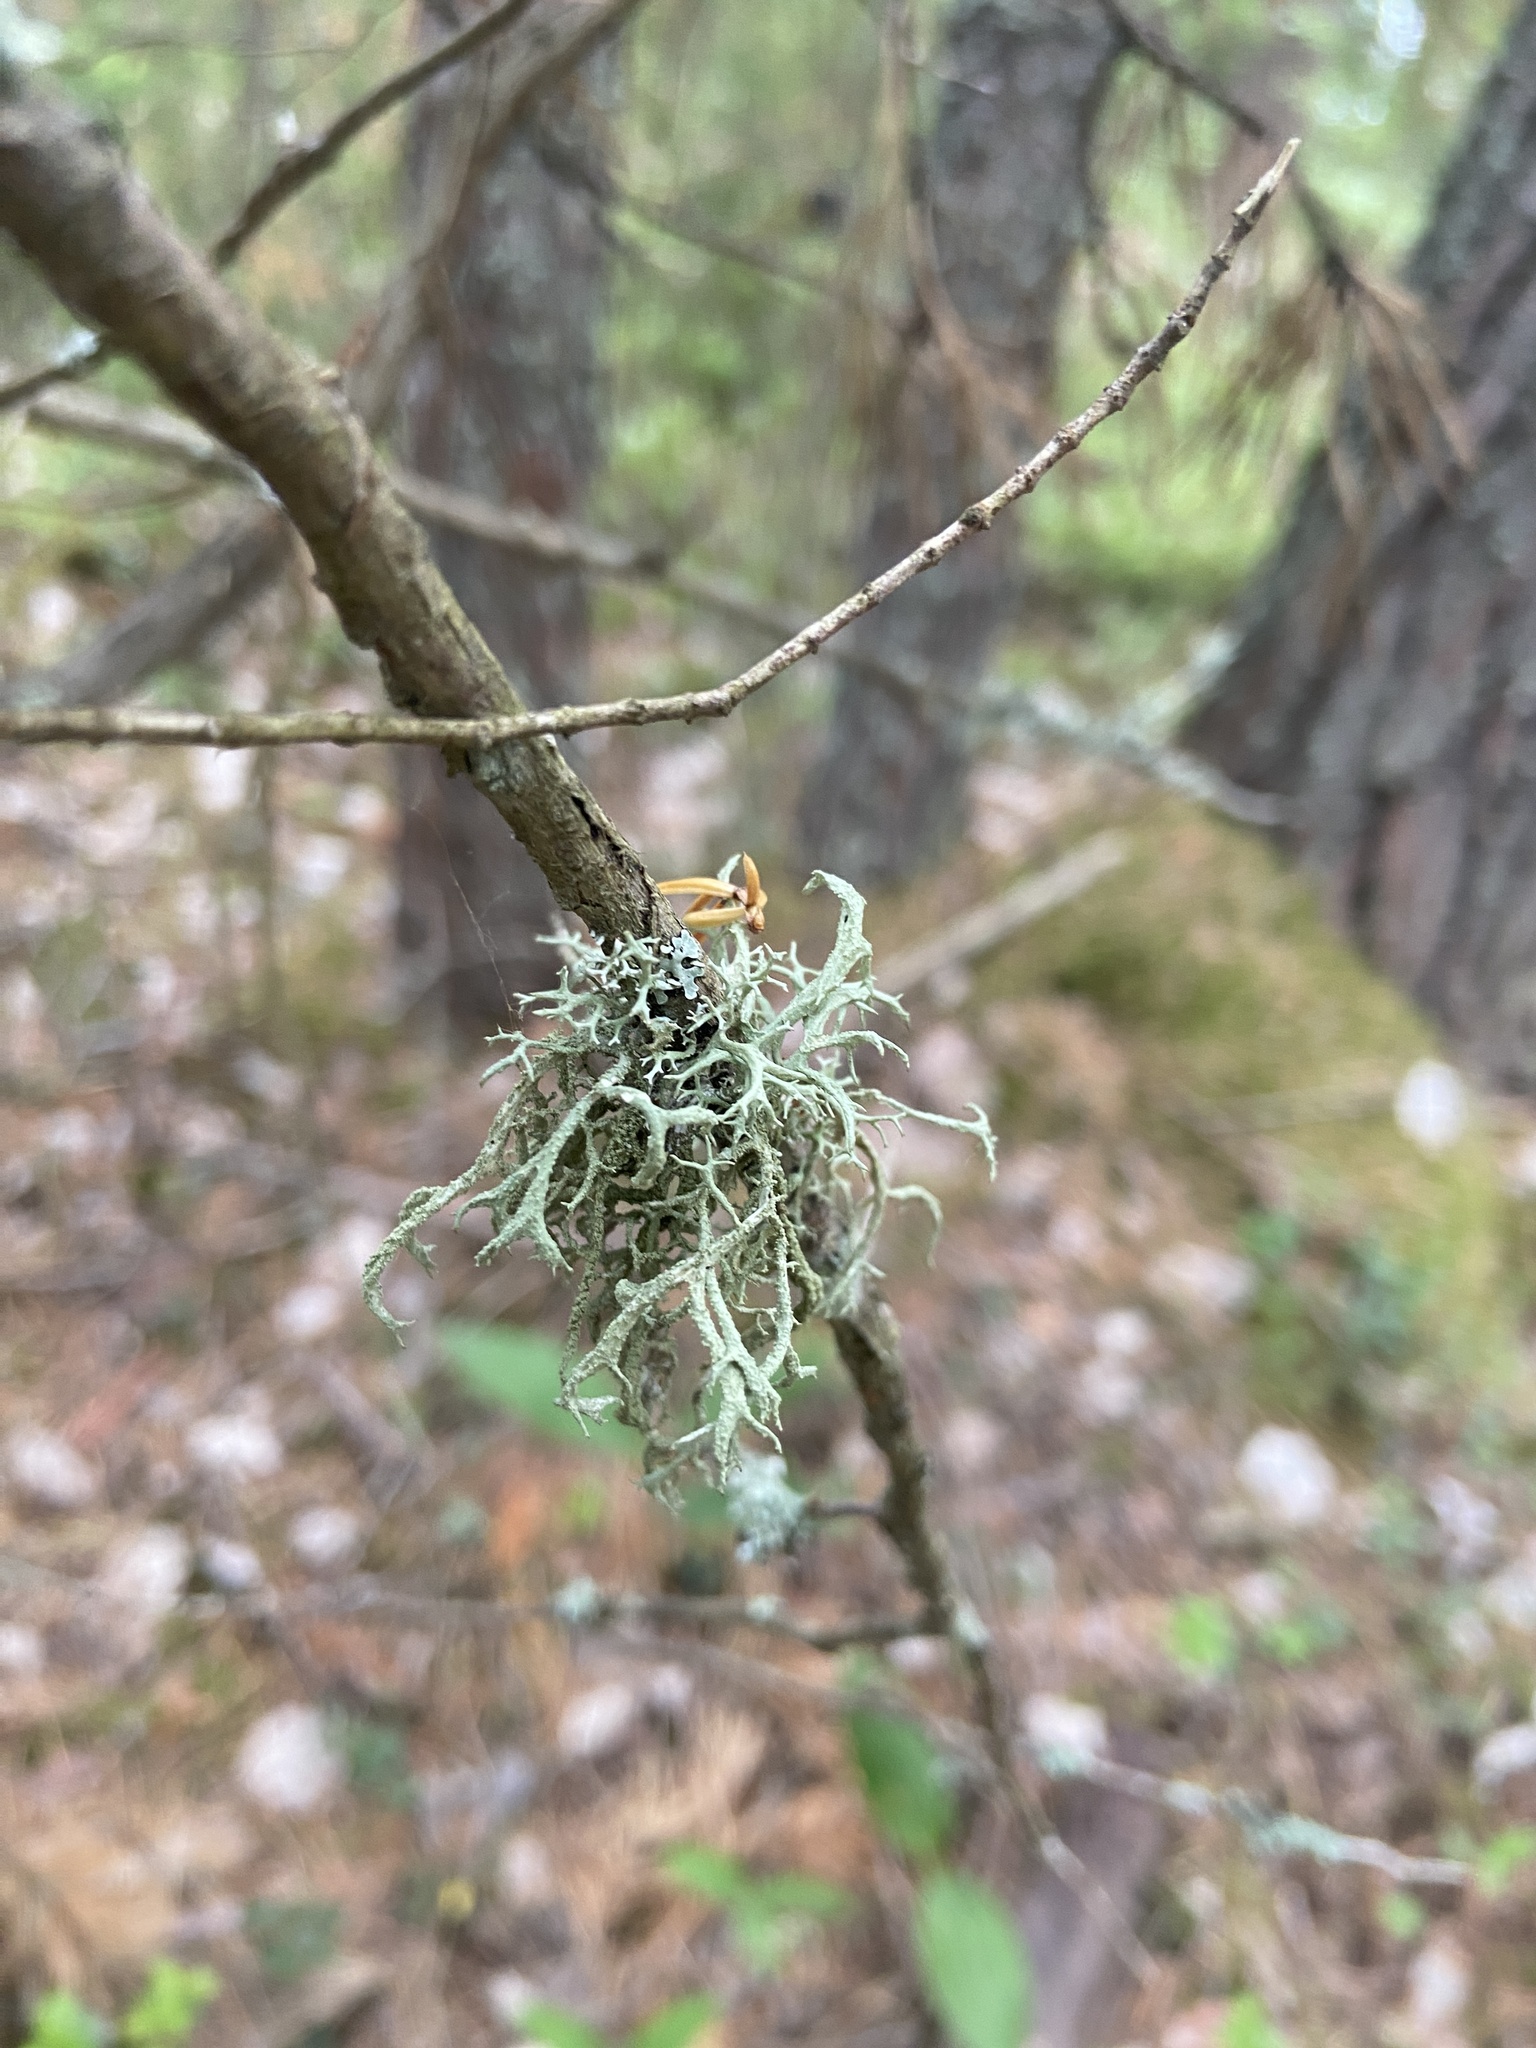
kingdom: Fungi
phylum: Ascomycota
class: Lecanoromycetes
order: Lecanorales
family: Parmeliaceae
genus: Evernia
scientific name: Evernia mesomorpha
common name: Boreal oak moss lichen
